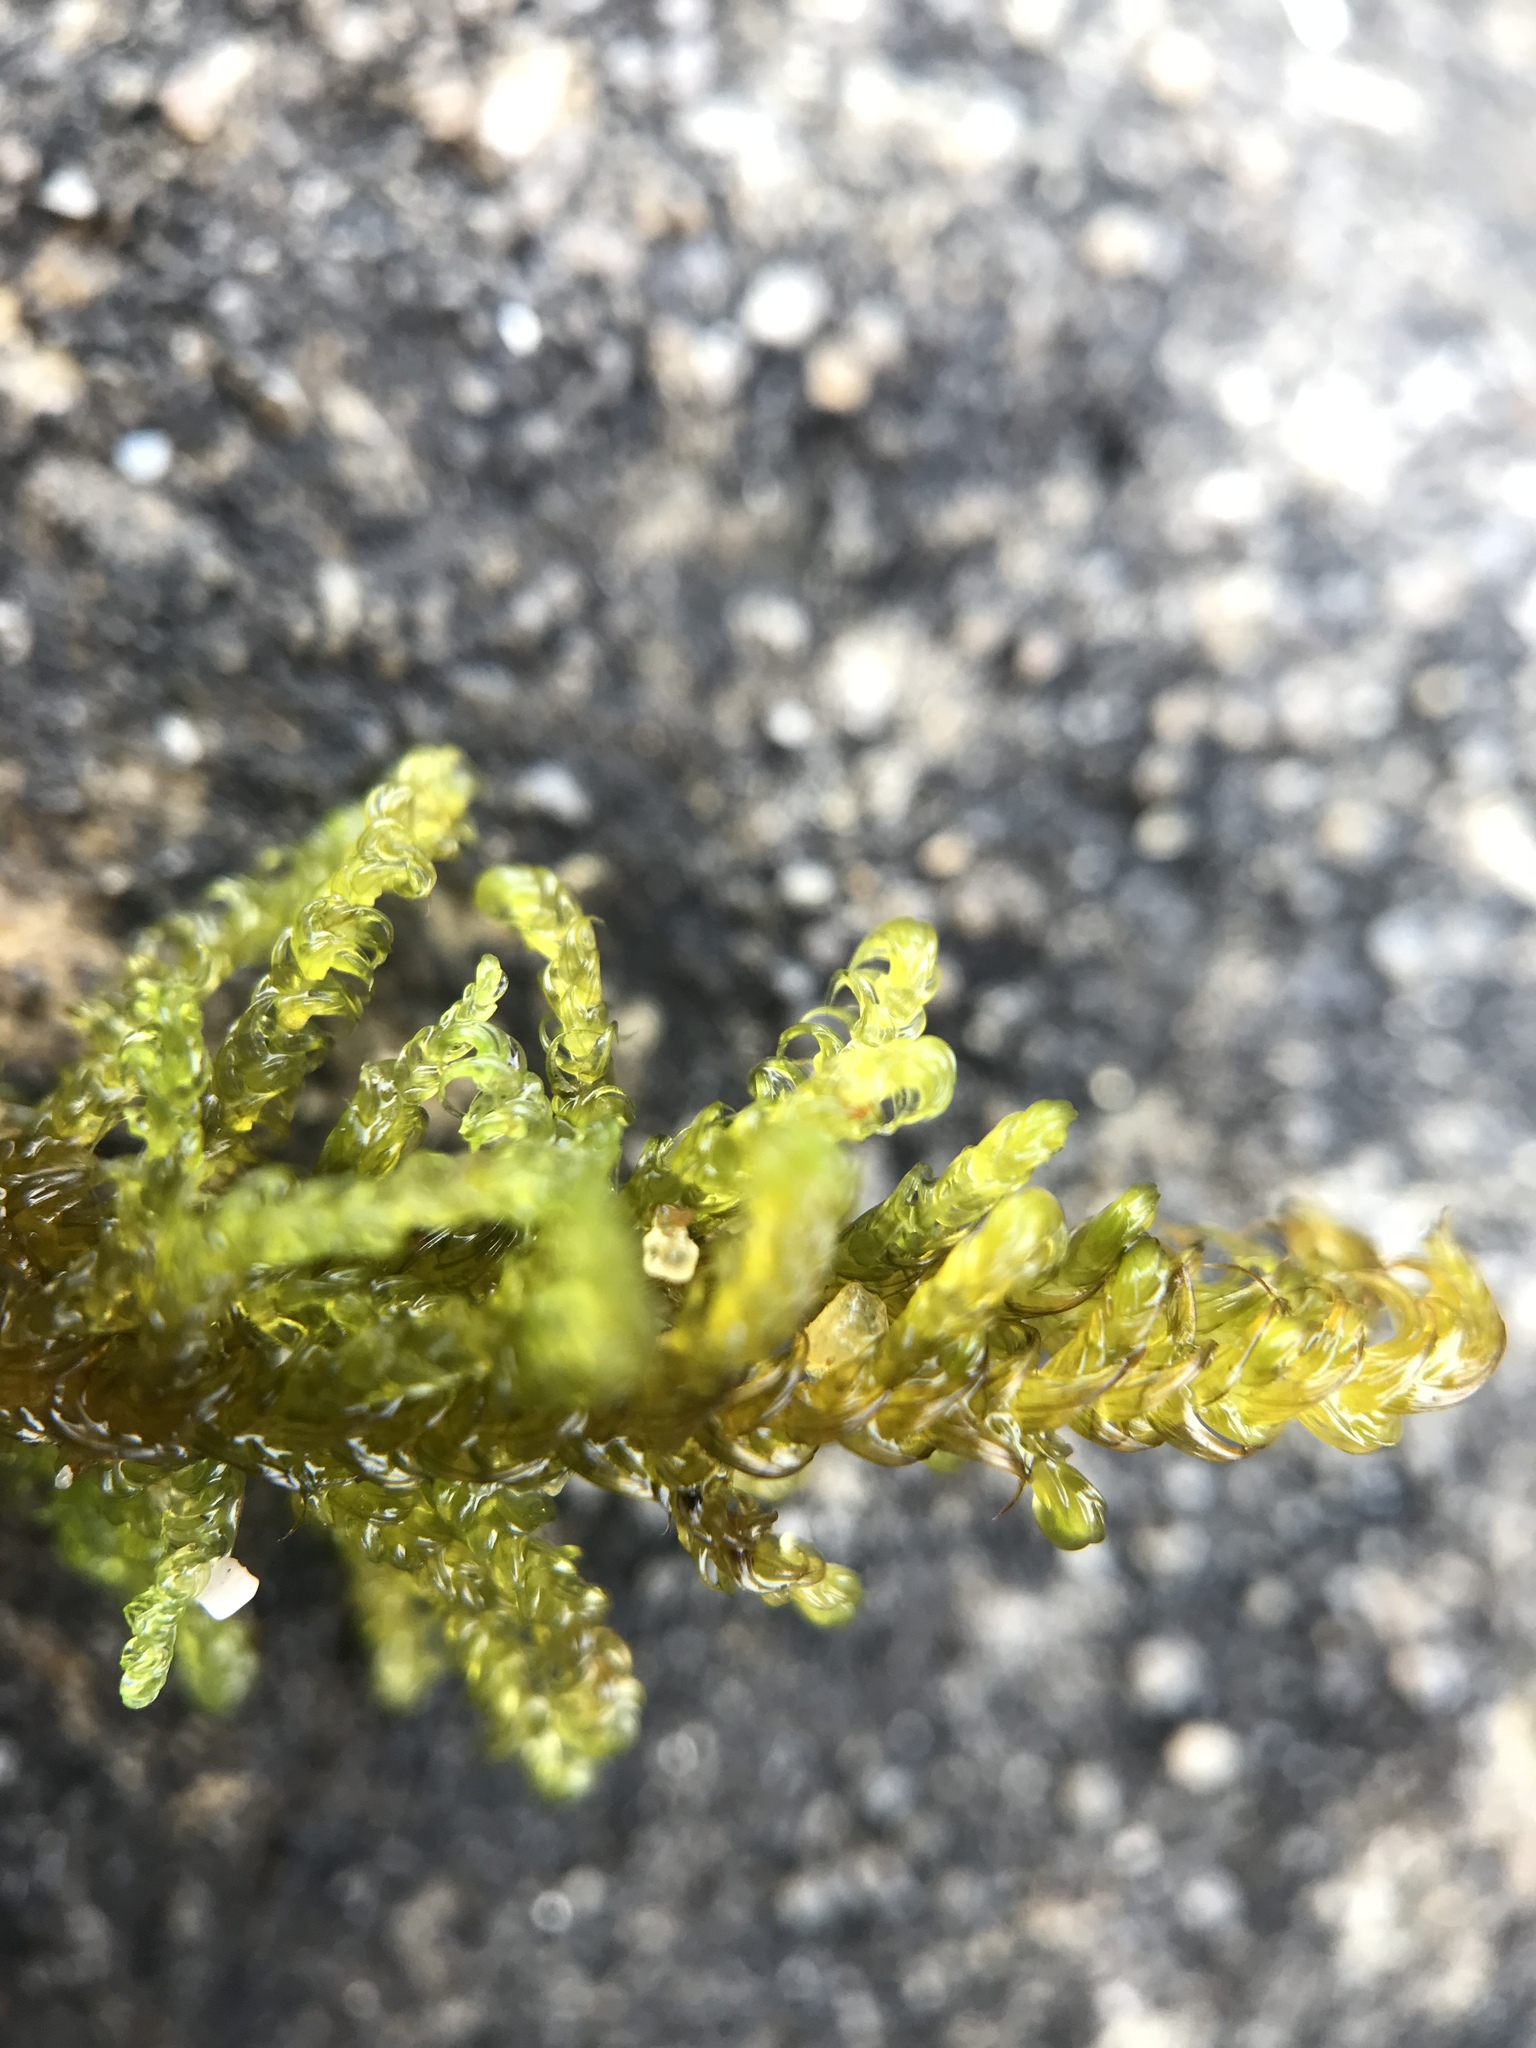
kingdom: Plantae
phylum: Bryophyta
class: Bryopsida
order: Hypnales
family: Amblystegiaceae
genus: Palustriella
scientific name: Palustriella commutata
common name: Curled hook-moss
